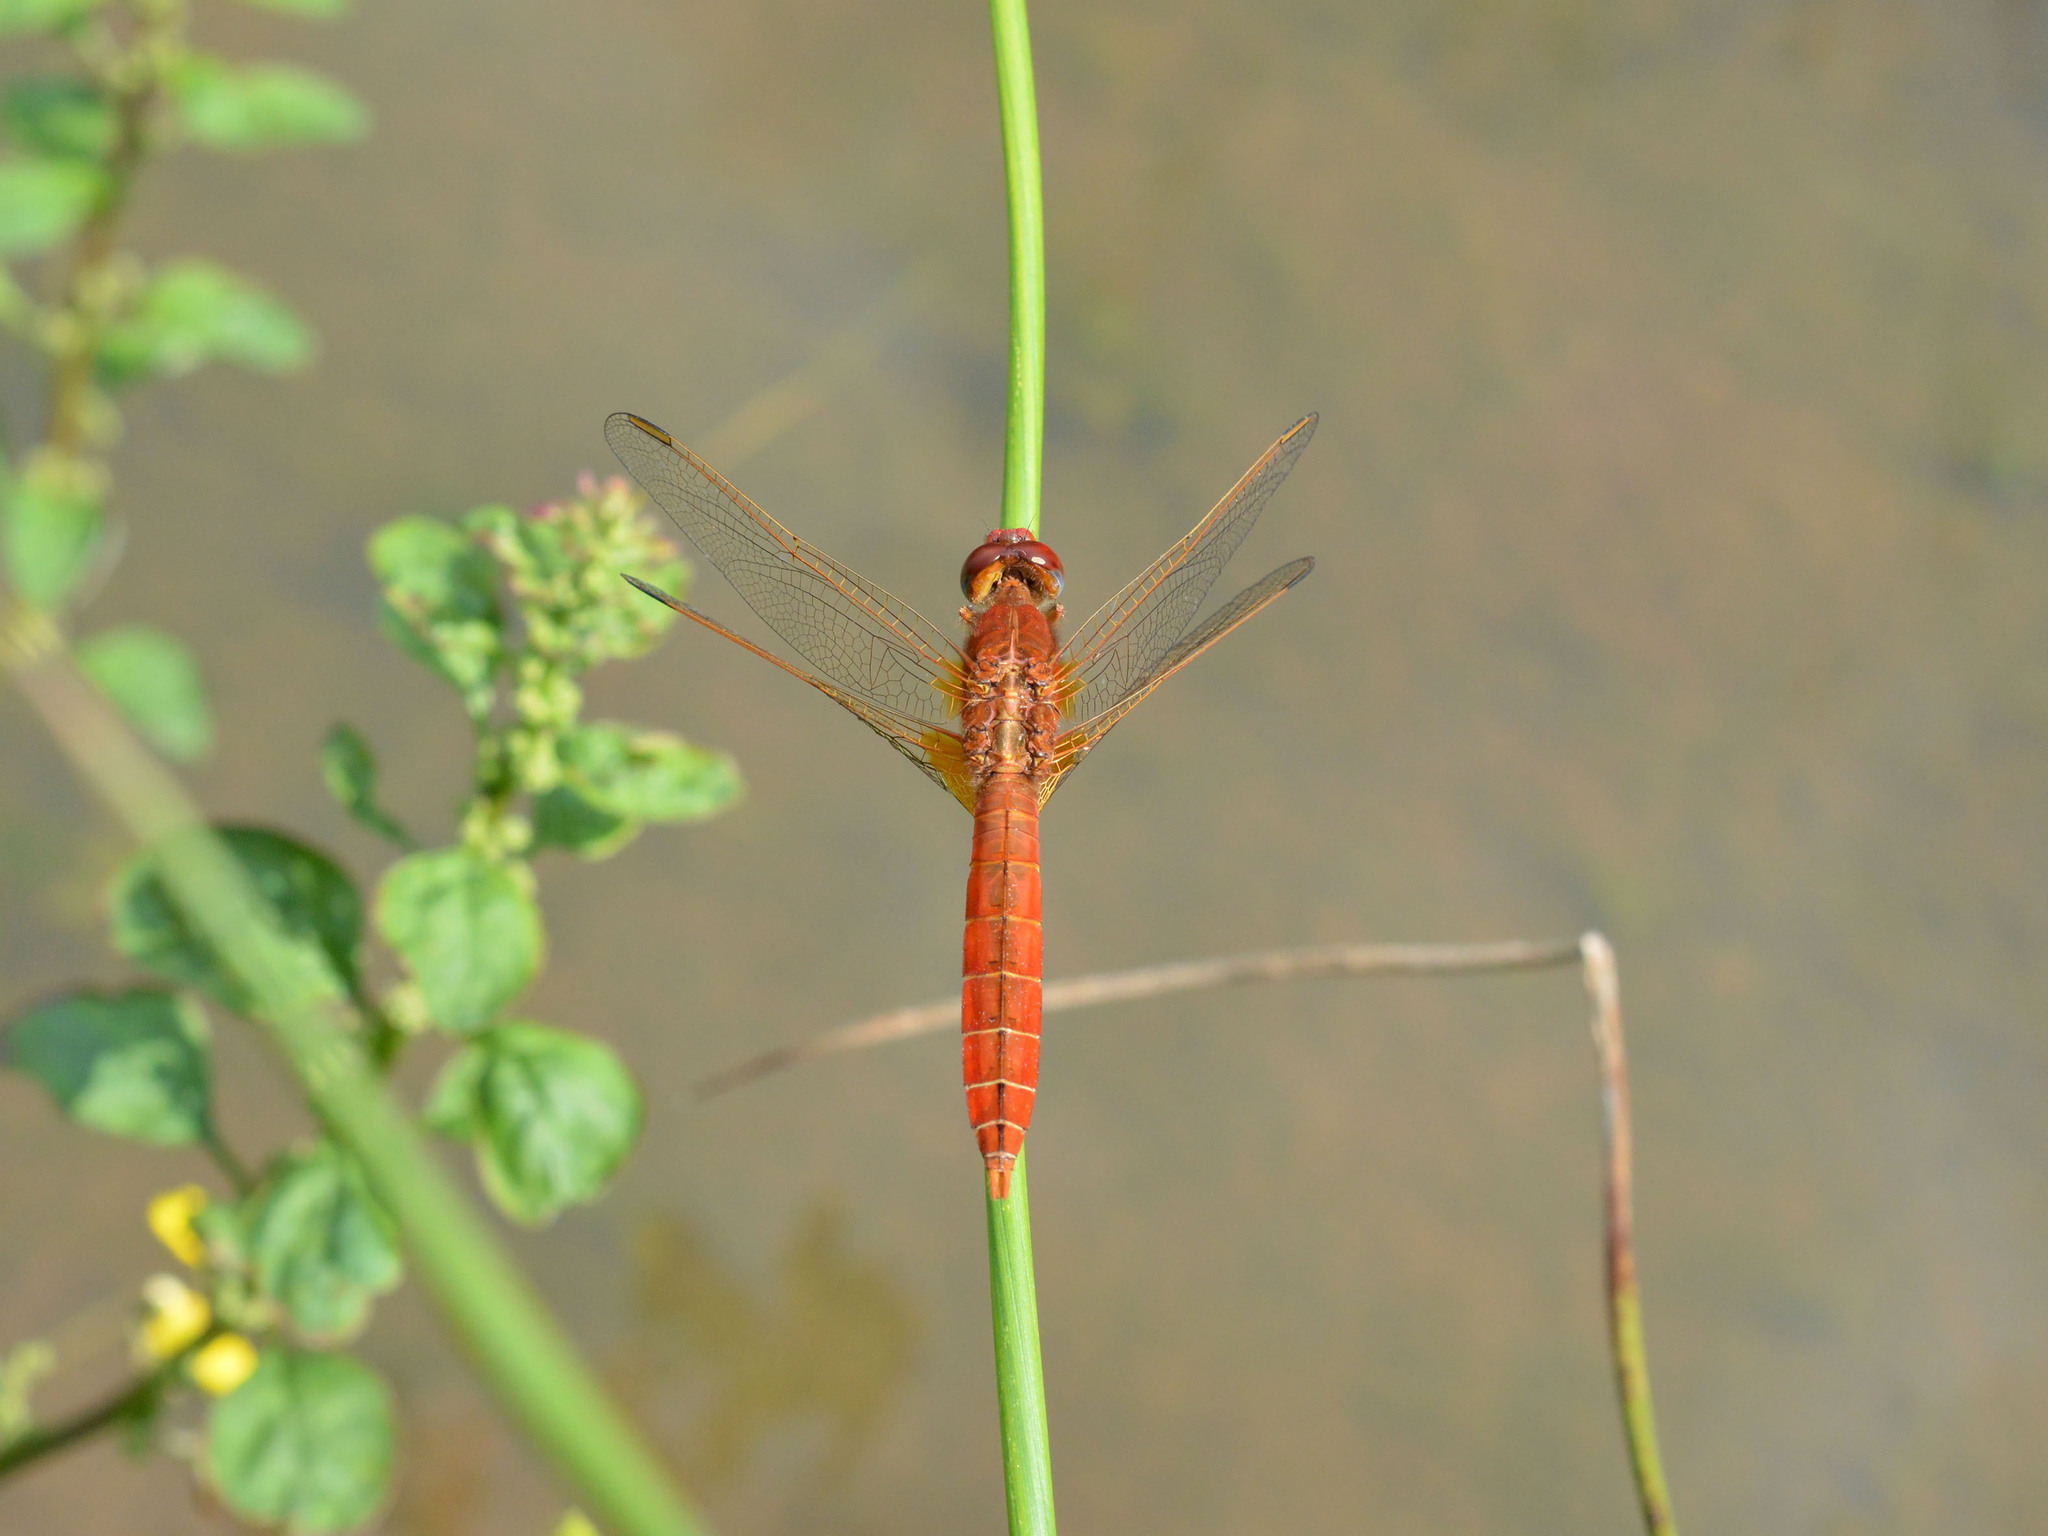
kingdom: Animalia
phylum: Arthropoda
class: Insecta
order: Odonata
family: Libellulidae
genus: Crocothemis
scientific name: Crocothemis erythraea
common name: Scarlet dragonfly
